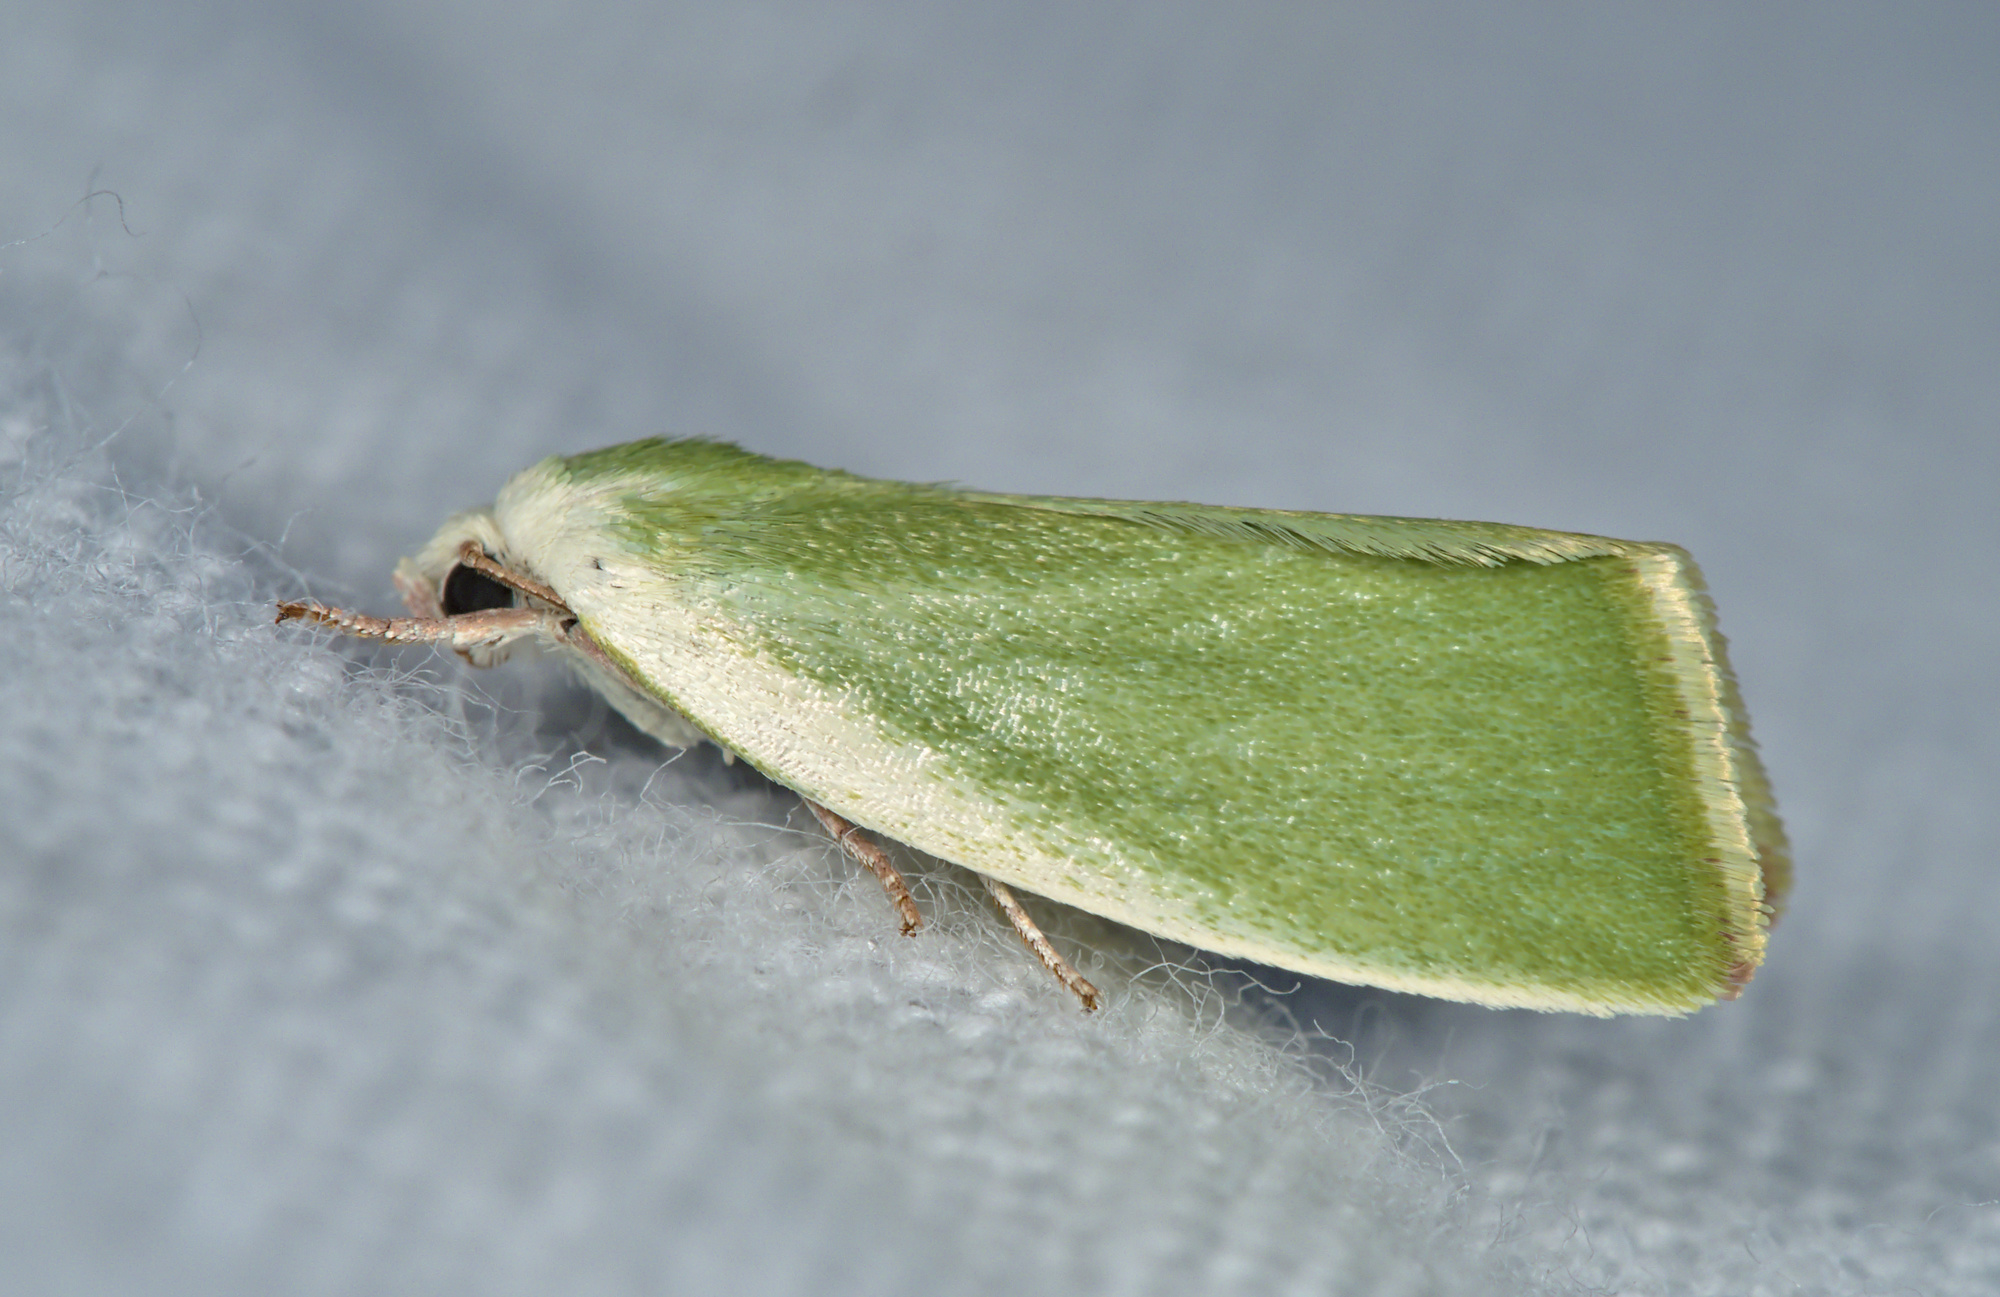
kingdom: Animalia
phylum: Arthropoda
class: Insecta
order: Lepidoptera
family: Nolidae
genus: Earias
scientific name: Earias clorana
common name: Cream-bordered green pea
